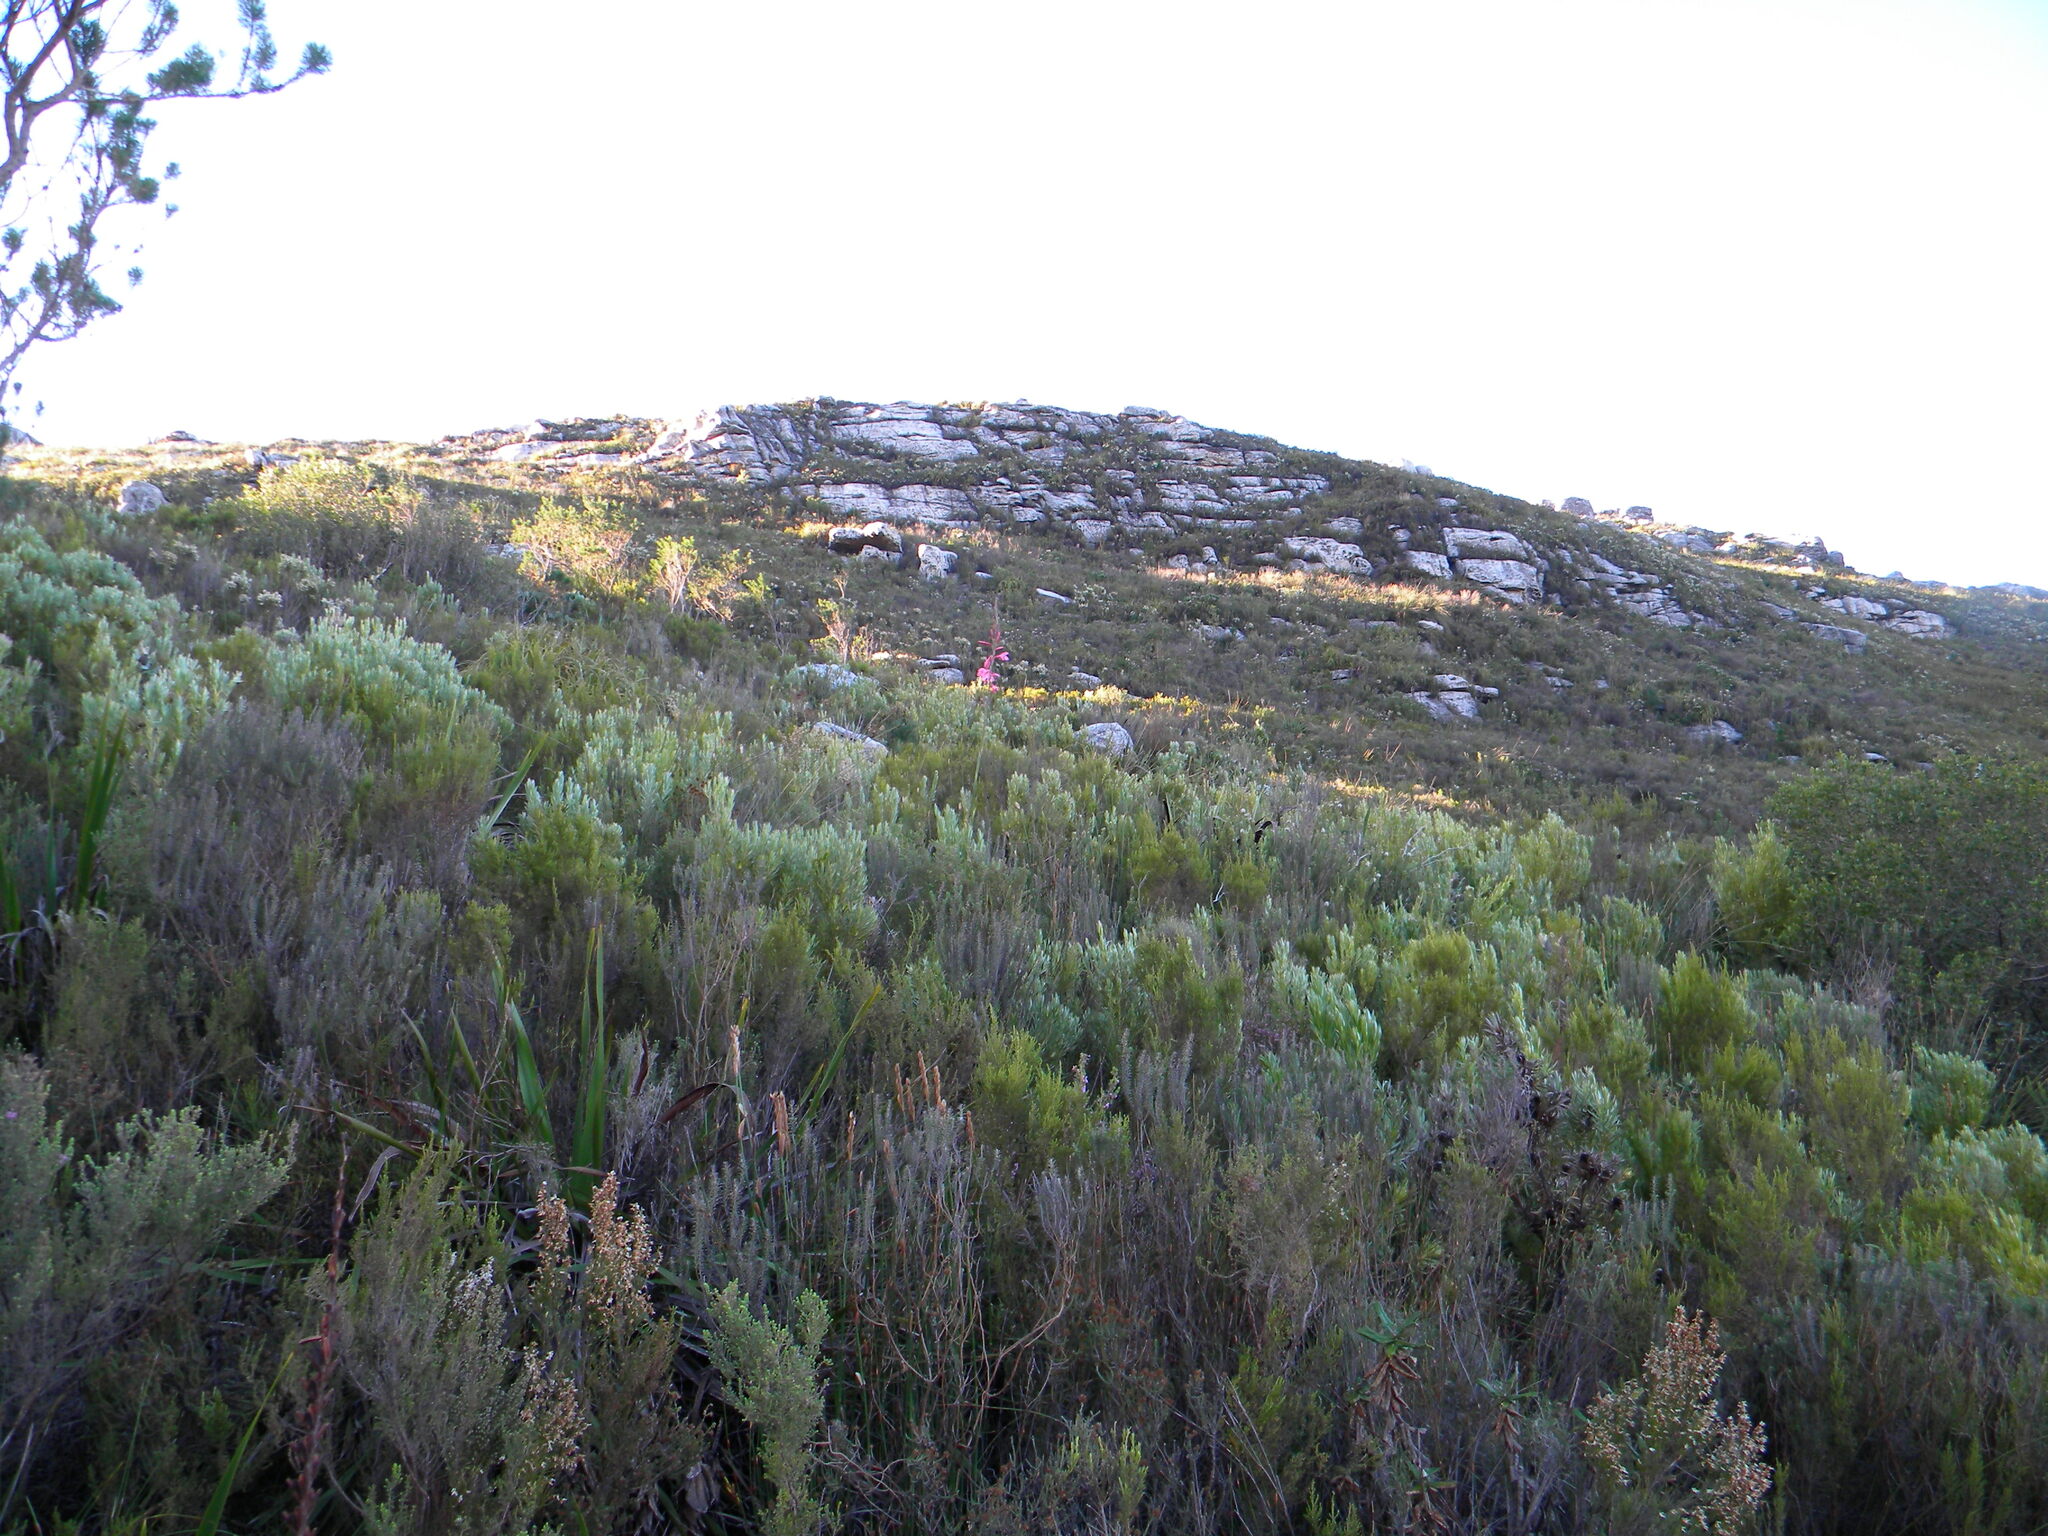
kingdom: Plantae
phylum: Tracheophyta
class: Liliopsida
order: Asparagales
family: Iridaceae
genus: Watsonia
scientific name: Watsonia borbonica
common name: Bugle-lily
